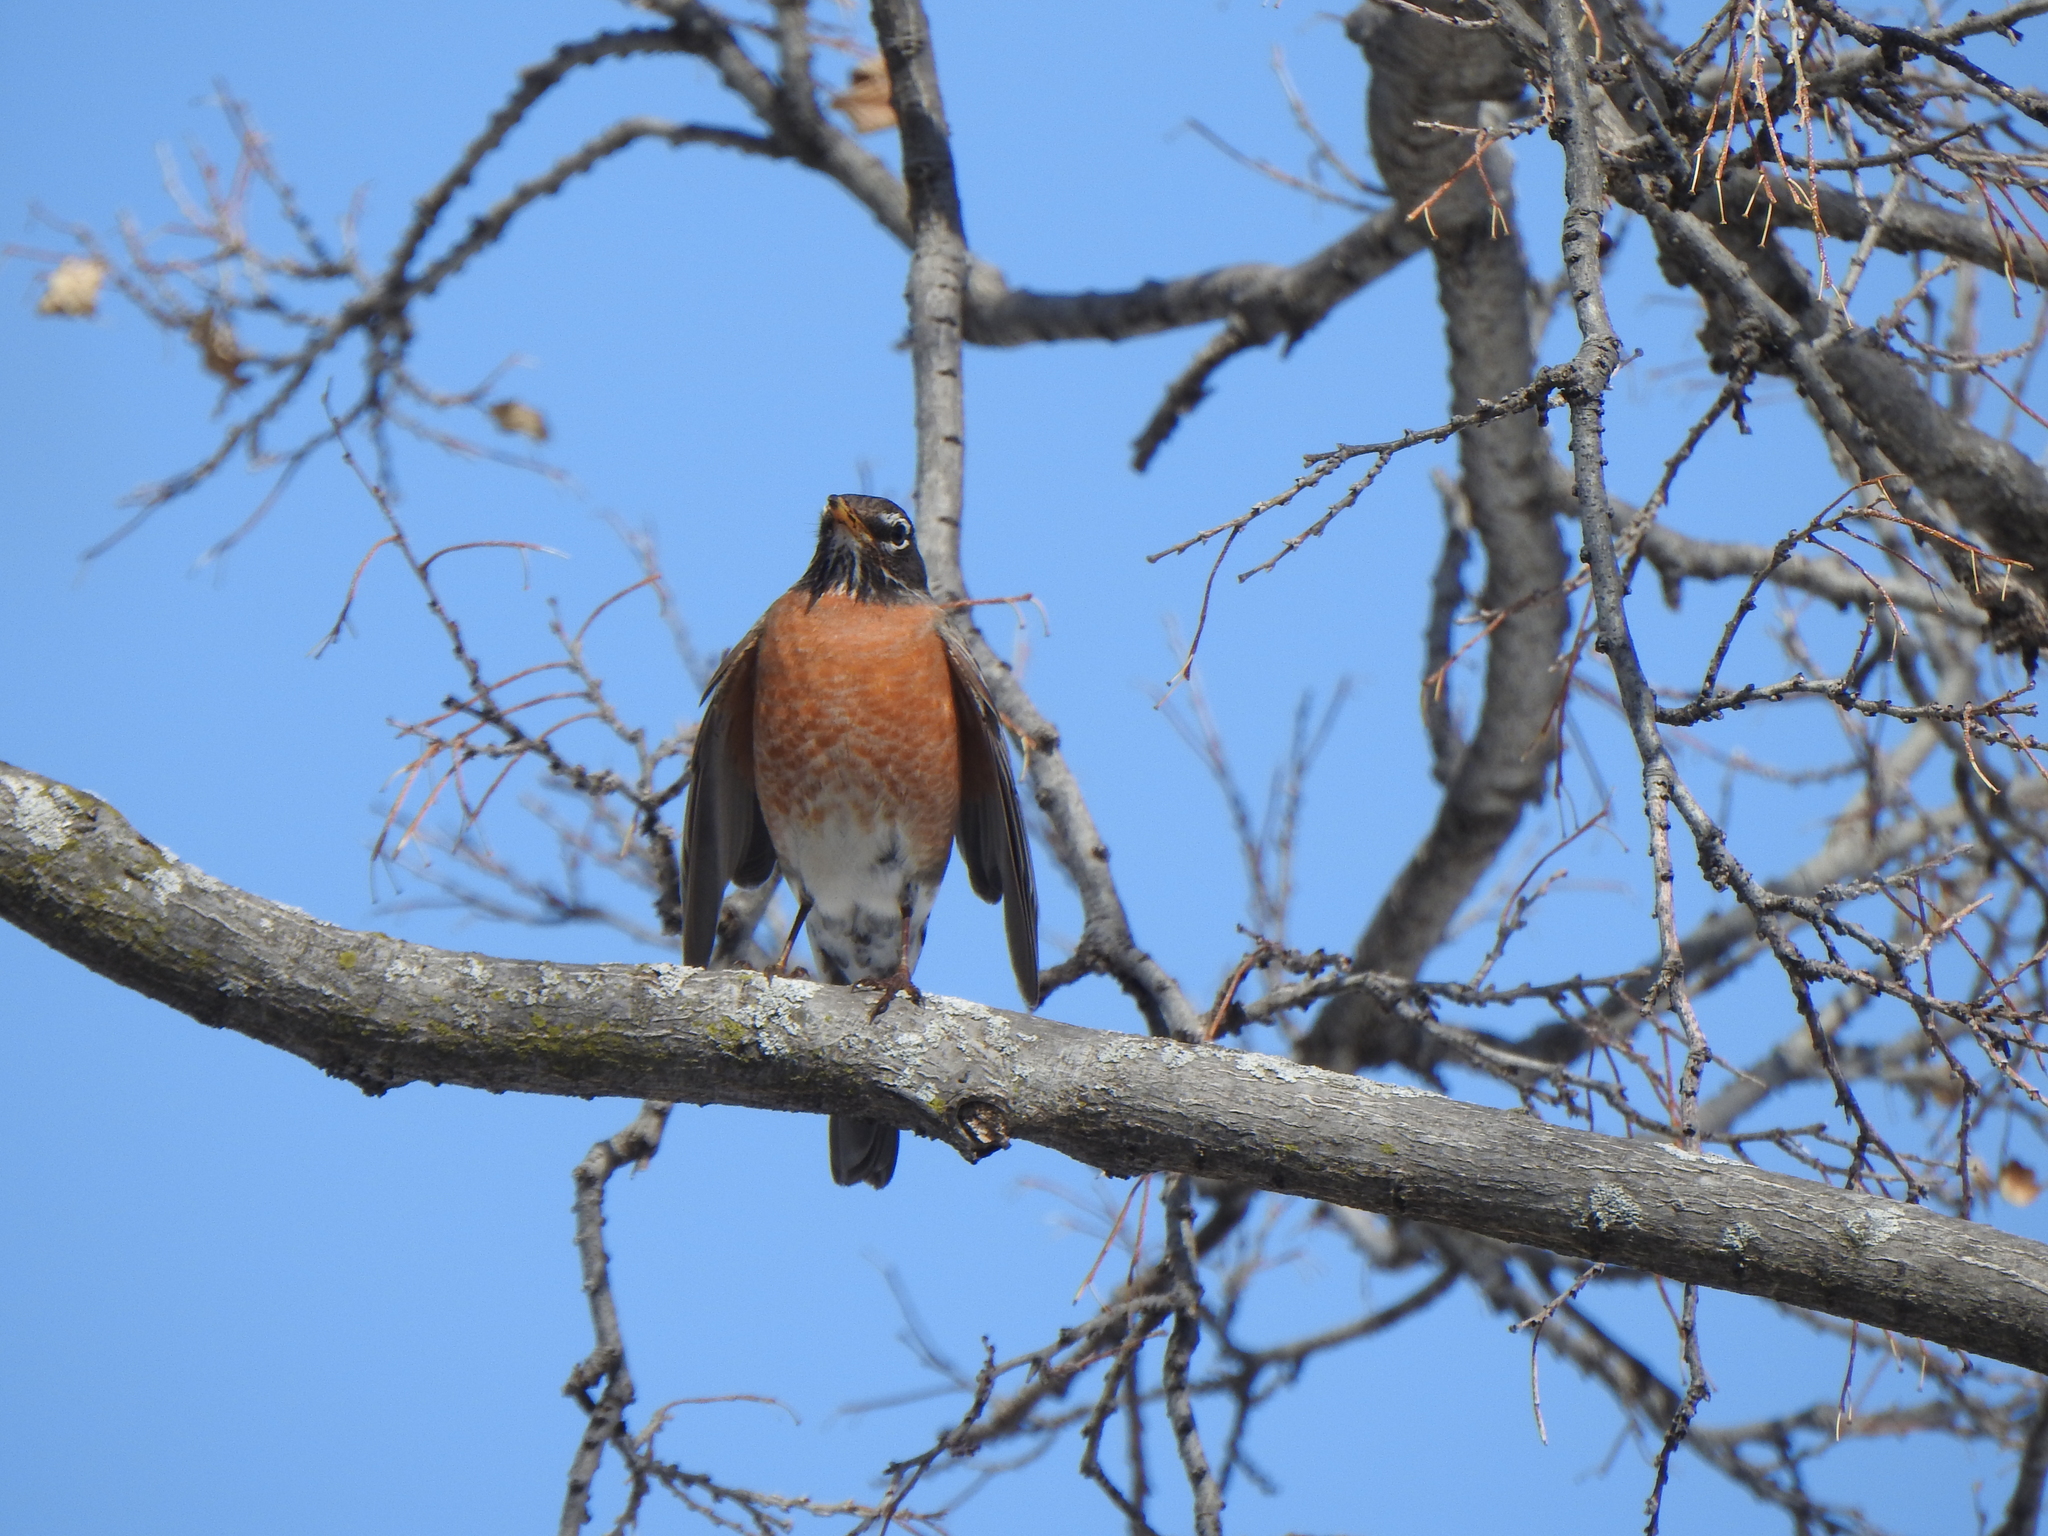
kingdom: Animalia
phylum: Chordata
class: Aves
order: Passeriformes
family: Turdidae
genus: Turdus
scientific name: Turdus migratorius
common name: American robin
